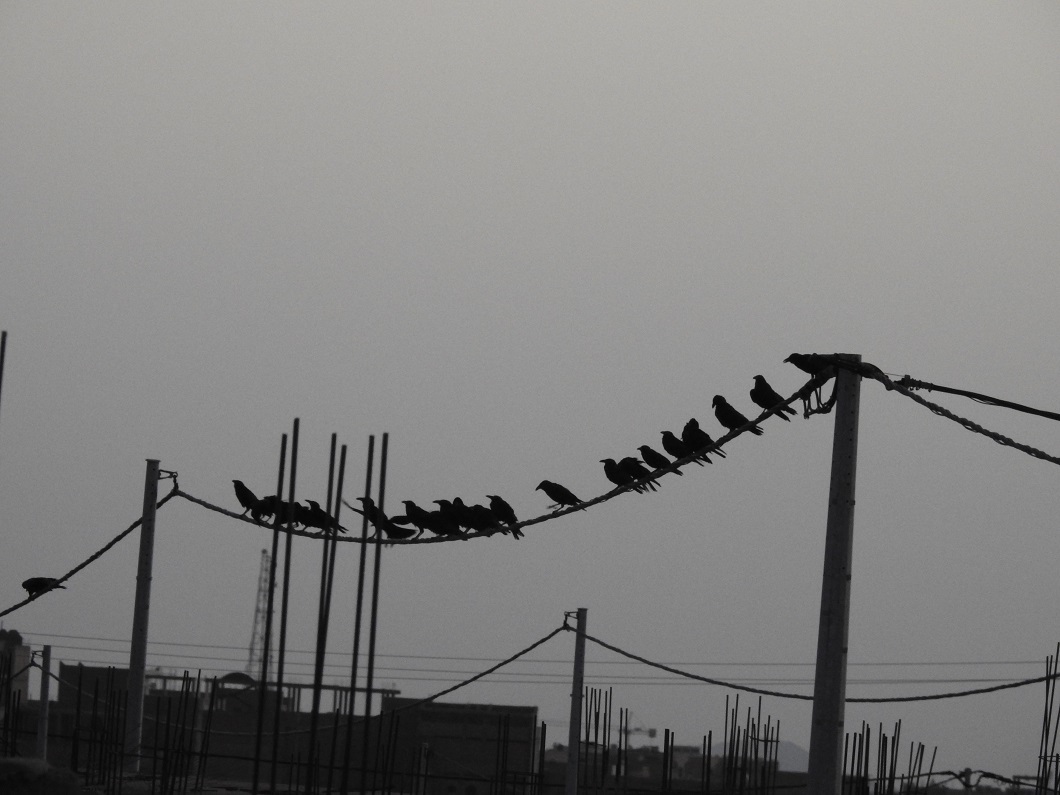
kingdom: Animalia
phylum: Chordata
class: Aves
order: Passeriformes
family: Corvidae
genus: Corvus
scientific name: Corvus ruficollis
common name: Brown-necked raven
